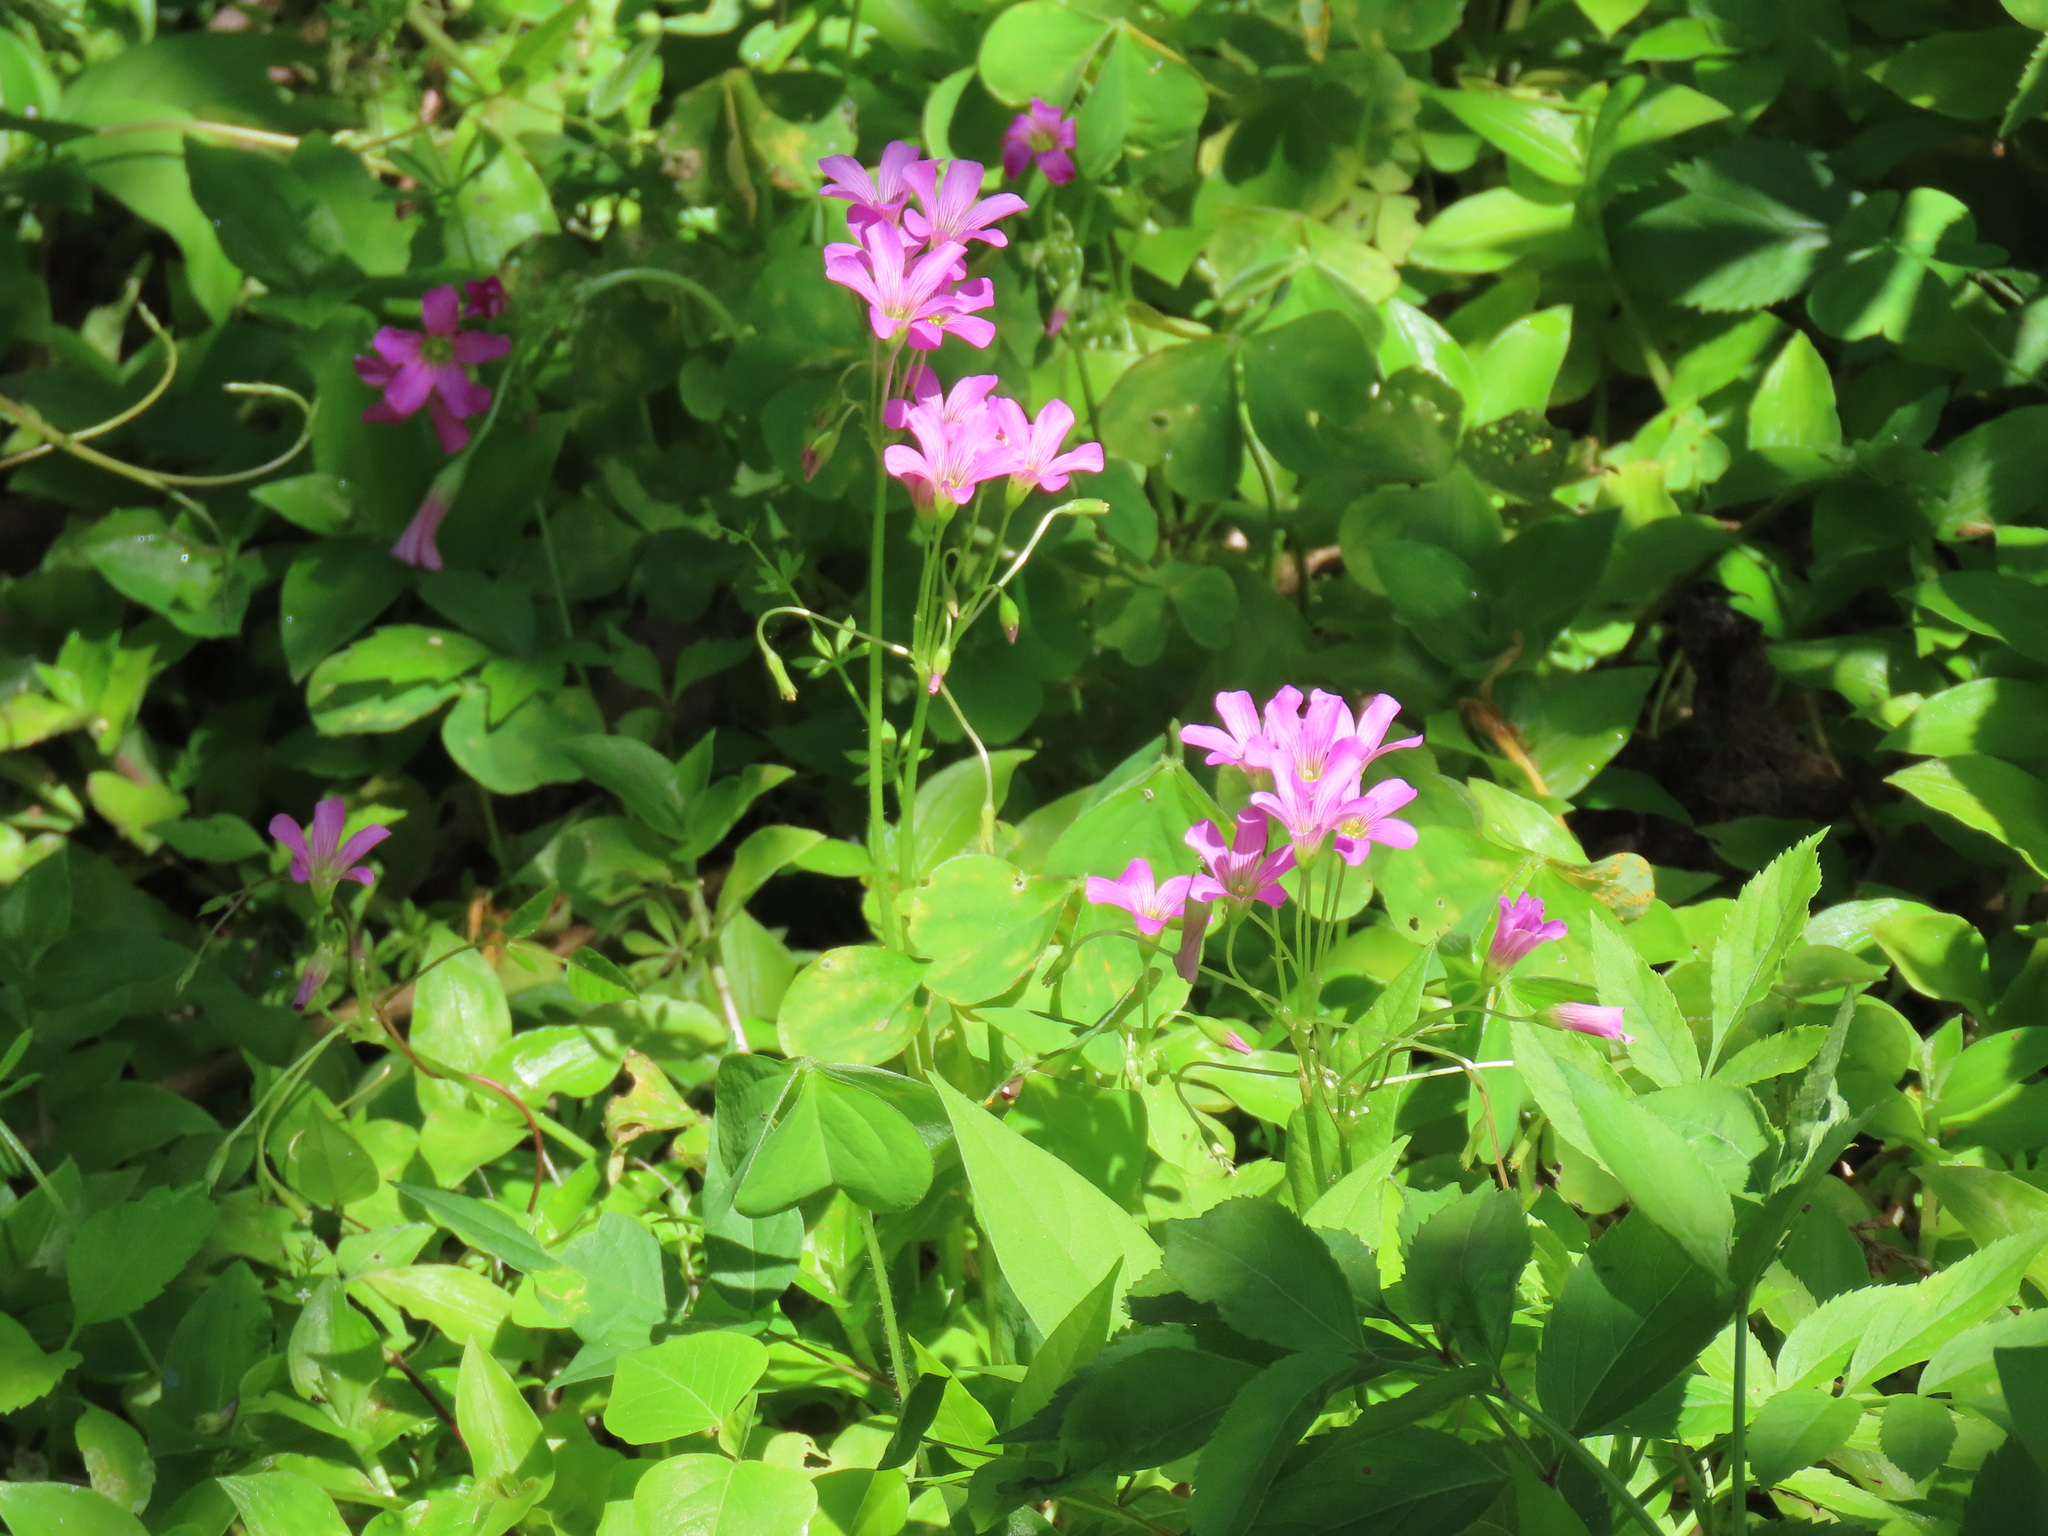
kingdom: Plantae
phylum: Tracheophyta
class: Magnoliopsida
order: Oxalidales
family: Oxalidaceae
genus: Oxalis
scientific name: Oxalis debilis
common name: Large-flowered pink-sorrel
